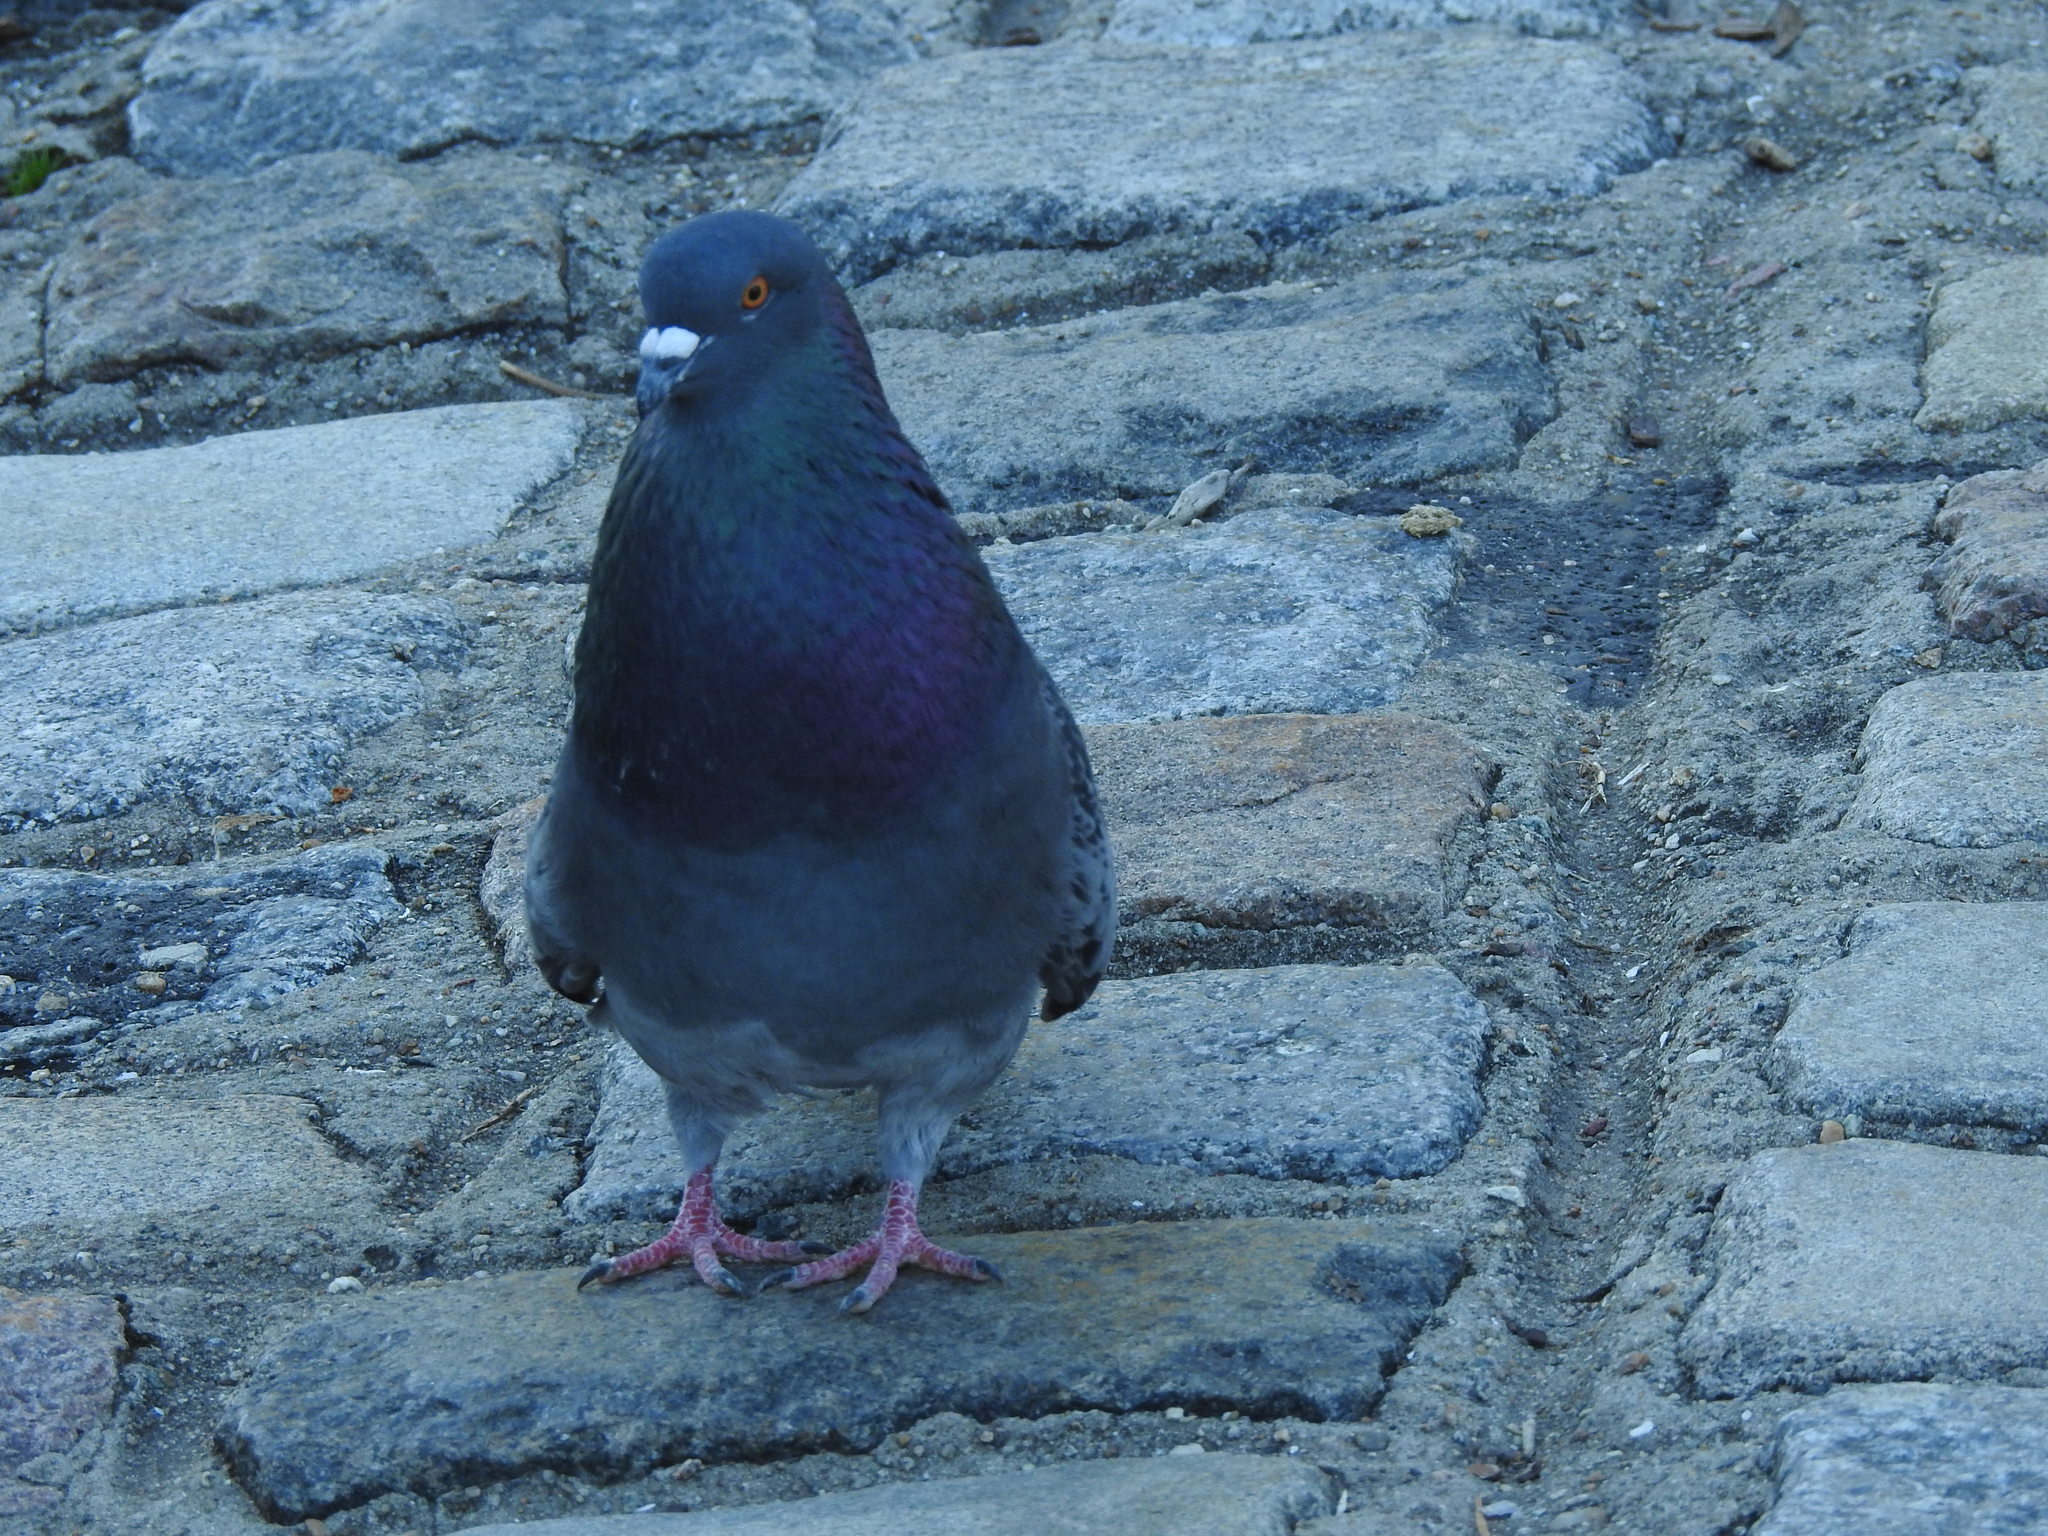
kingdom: Animalia
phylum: Chordata
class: Aves
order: Columbiformes
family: Columbidae
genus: Columba
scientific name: Columba livia
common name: Rock pigeon
